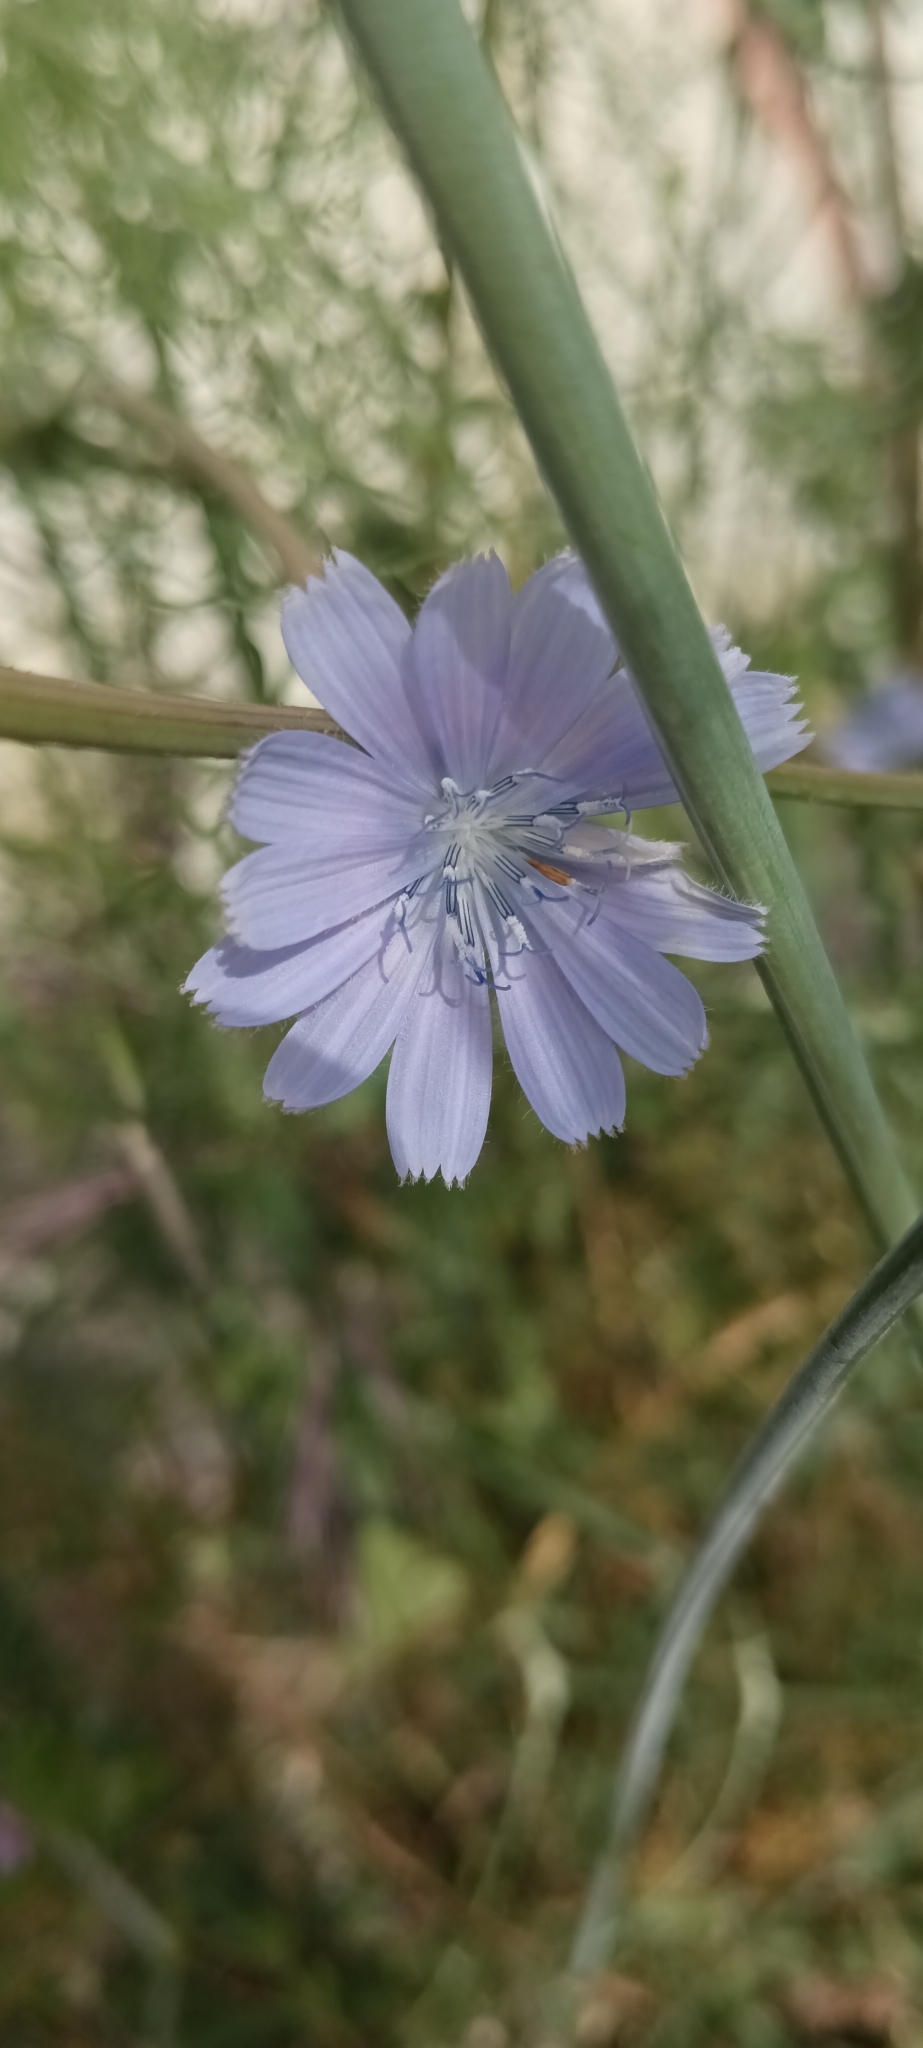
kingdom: Plantae
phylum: Tracheophyta
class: Magnoliopsida
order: Asterales
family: Asteraceae
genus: Cichorium
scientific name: Cichorium intybus
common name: Chicory
